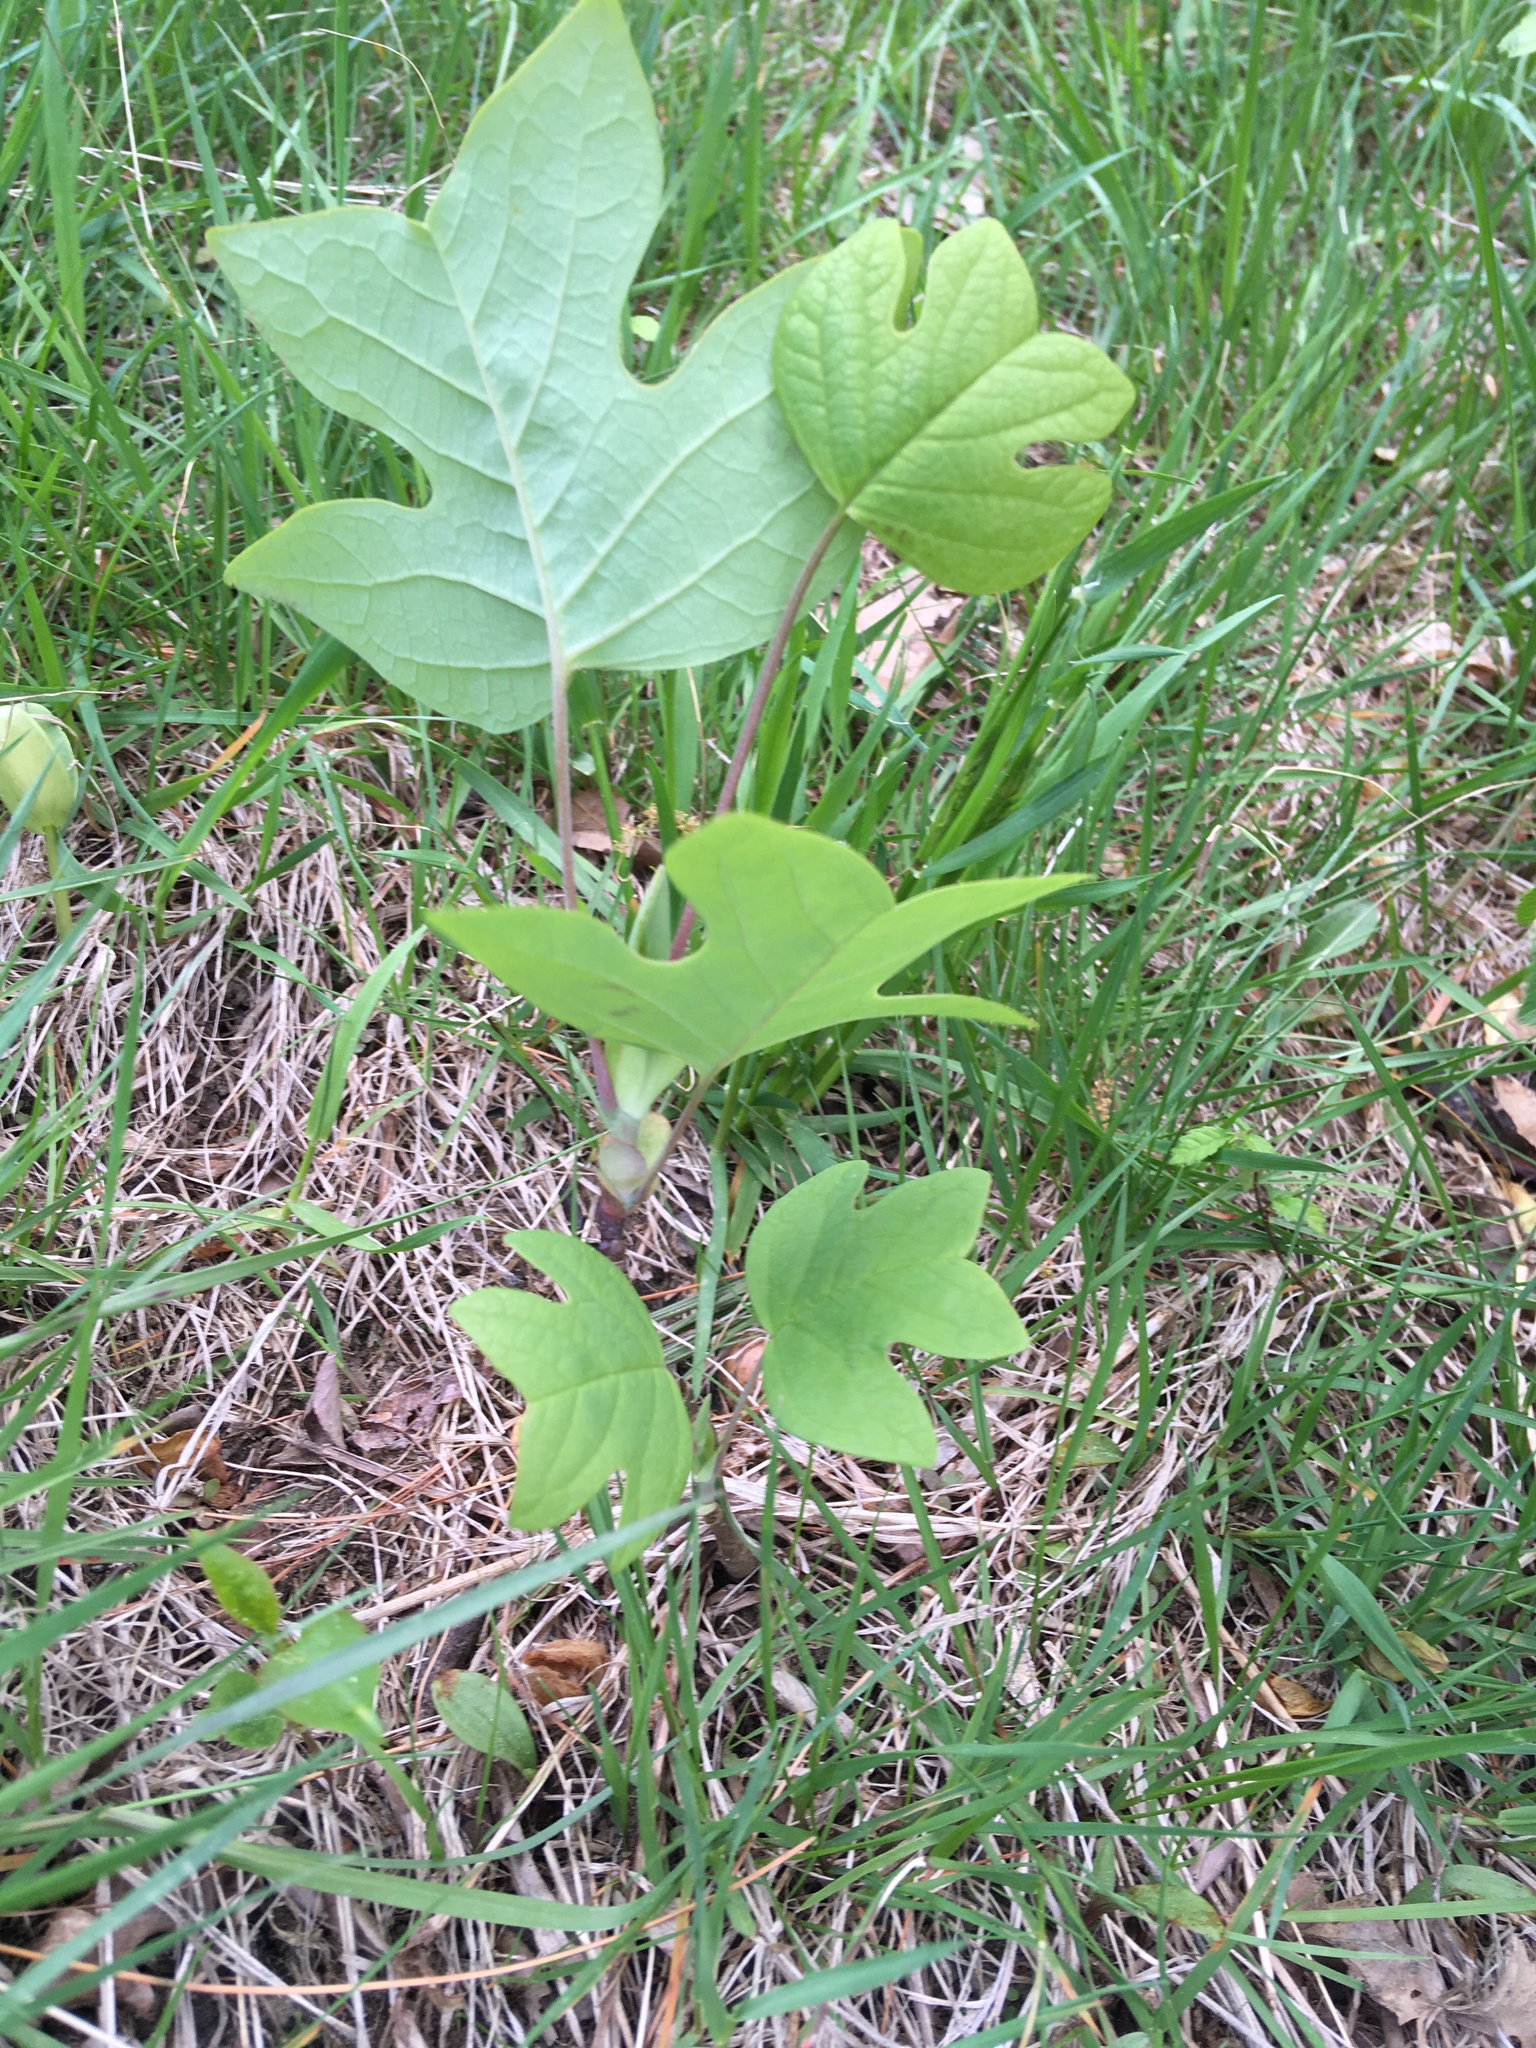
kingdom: Plantae
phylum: Tracheophyta
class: Magnoliopsida
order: Magnoliales
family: Magnoliaceae
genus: Liriodendron
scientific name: Liriodendron tulipifera
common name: Tulip tree
